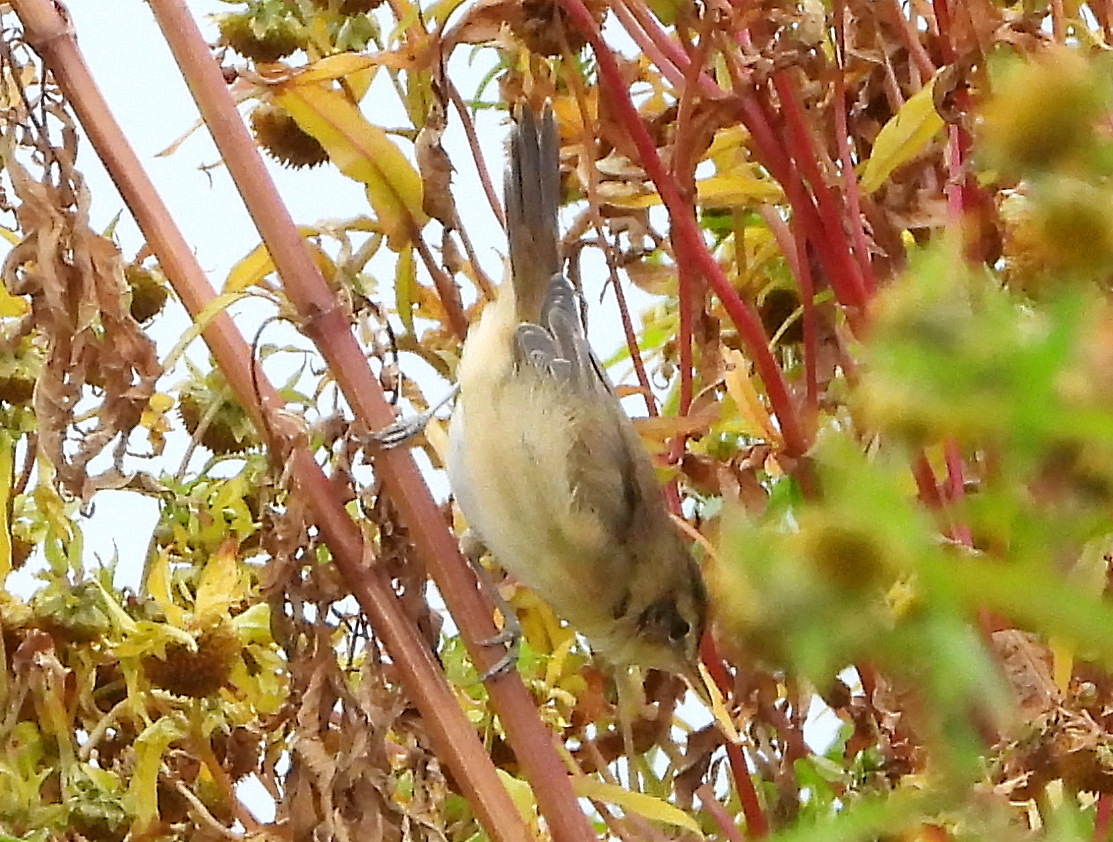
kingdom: Animalia
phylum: Chordata
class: Aves
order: Passeriformes
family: Acrocephalidae
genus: Acrocephalus
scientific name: Acrocephalus bistrigiceps
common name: Black-browed reed warbler
